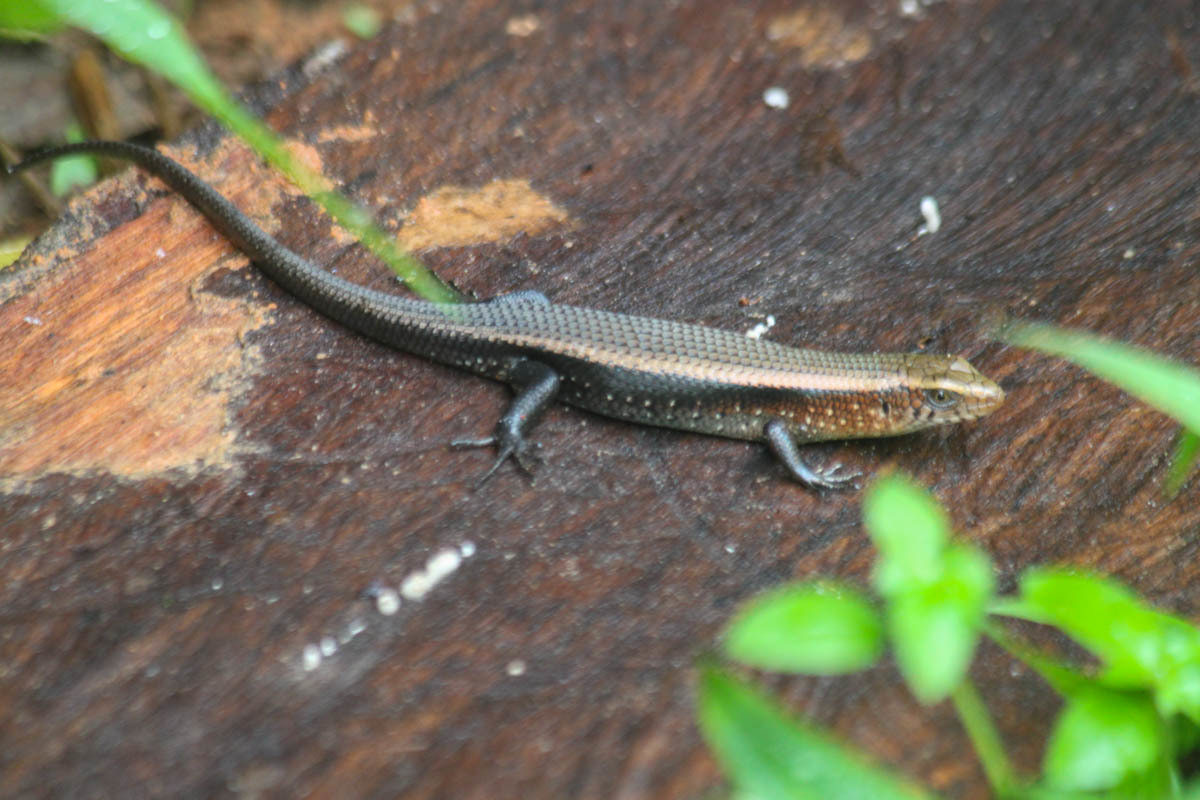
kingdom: Animalia
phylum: Chordata
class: Squamata
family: Scincidae
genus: Eutropis
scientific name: Eutropis multifasciata
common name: Common mabuya
